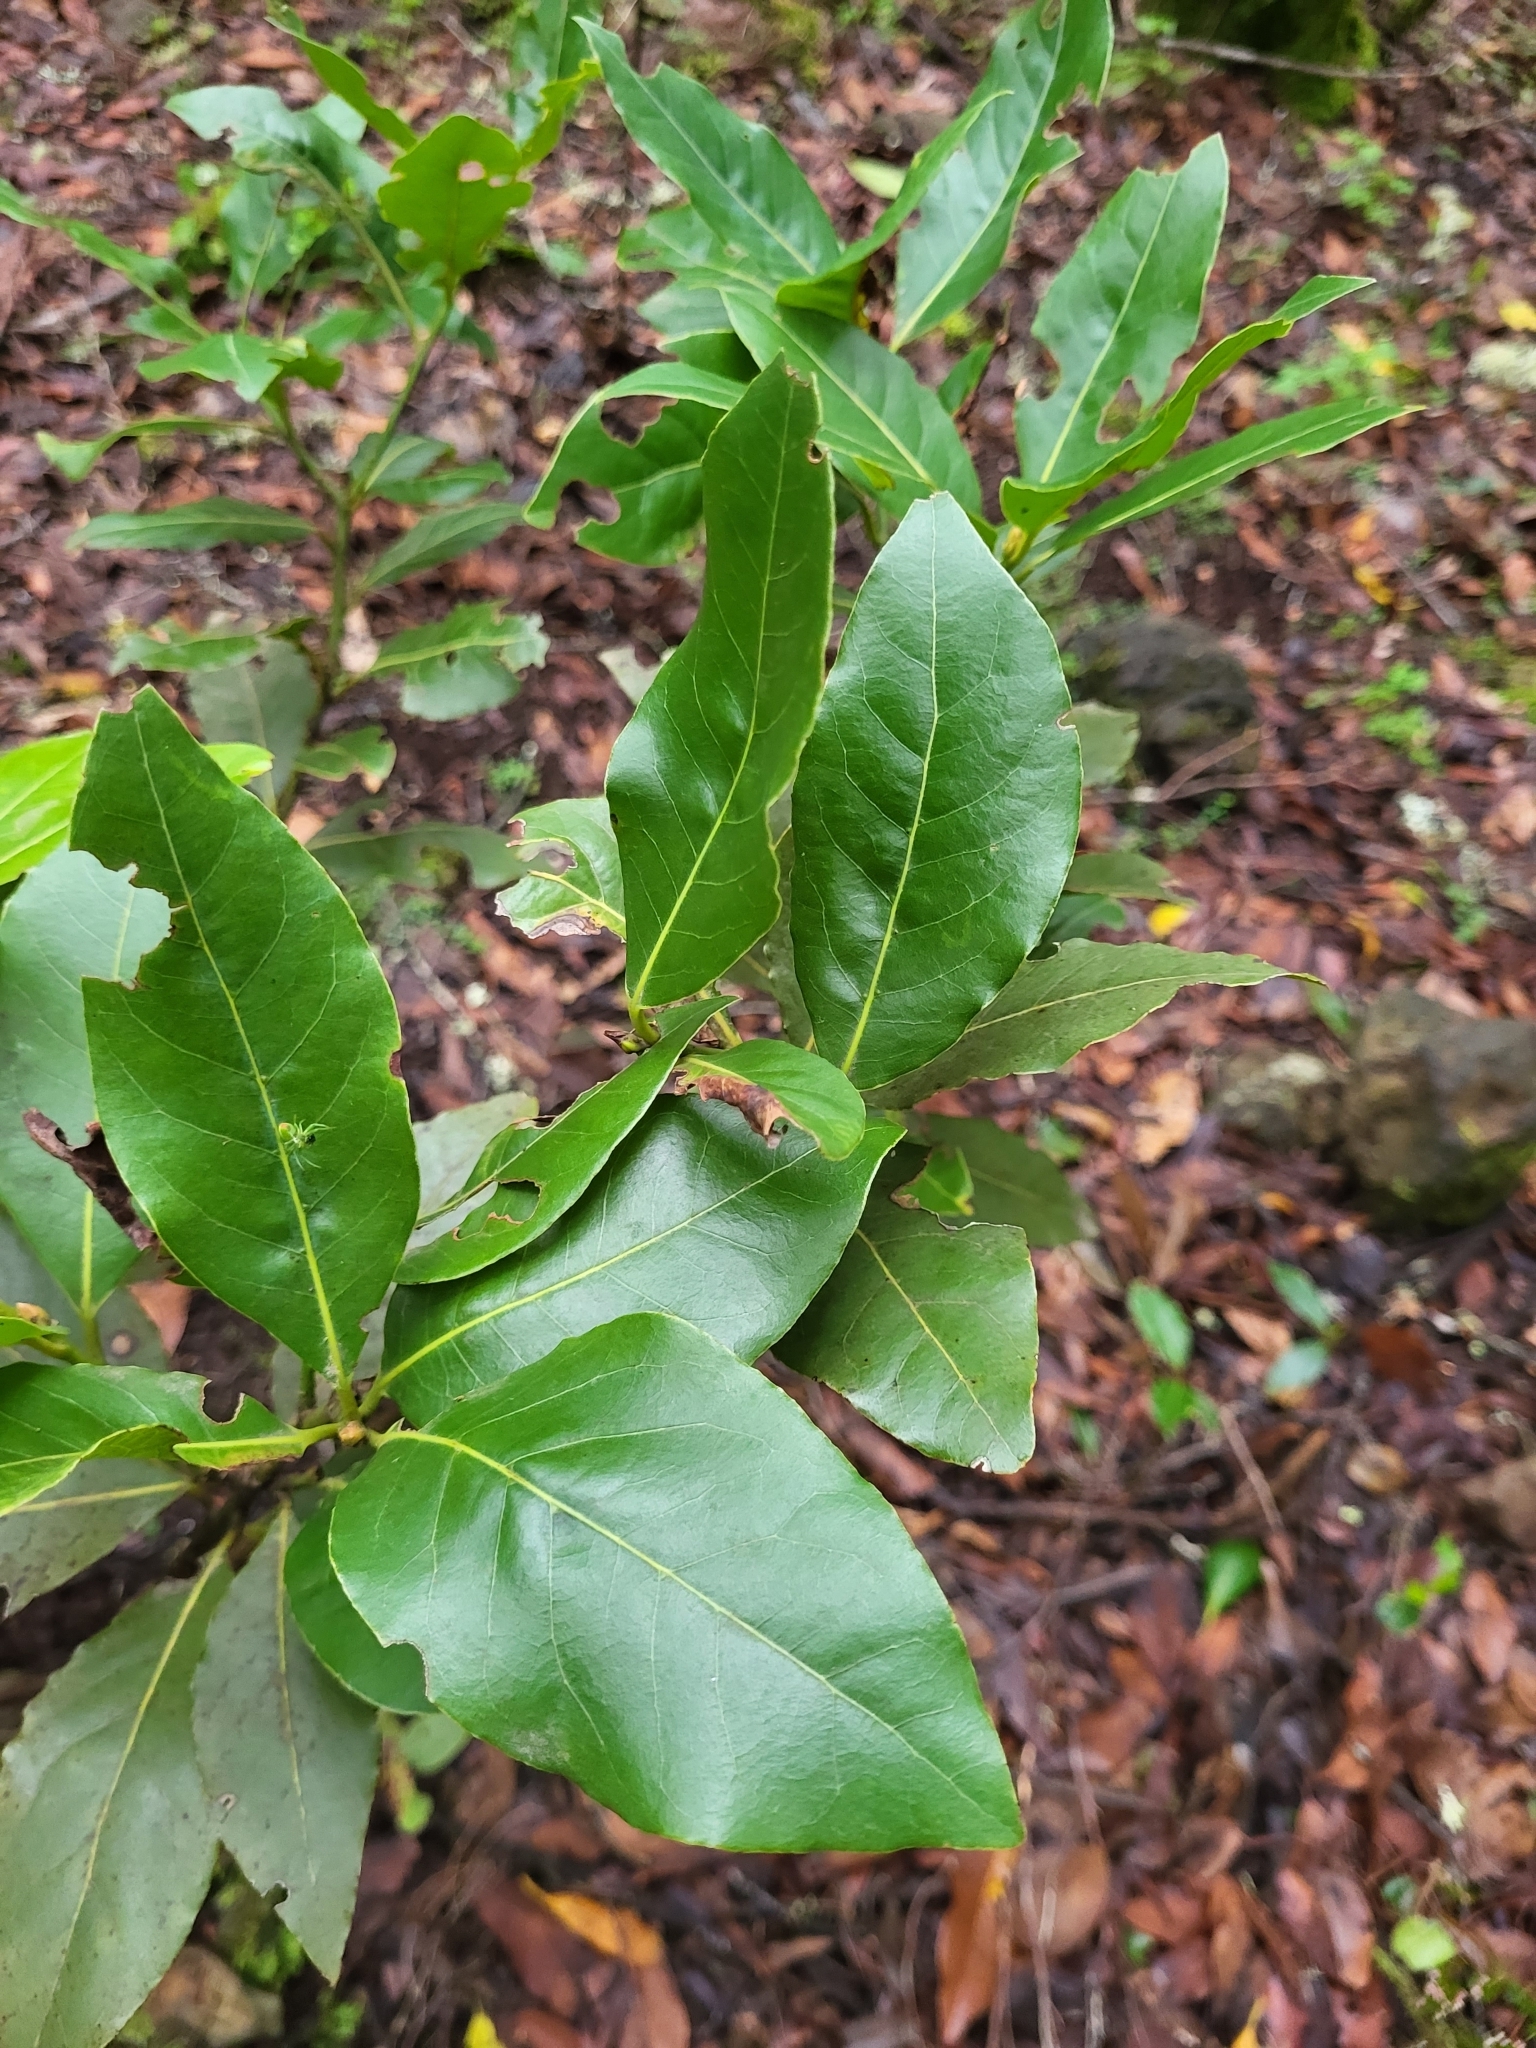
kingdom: Plantae
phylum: Tracheophyta
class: Magnoliopsida
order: Laurales
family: Lauraceae
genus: Laurus
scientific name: Laurus novocanariensis
